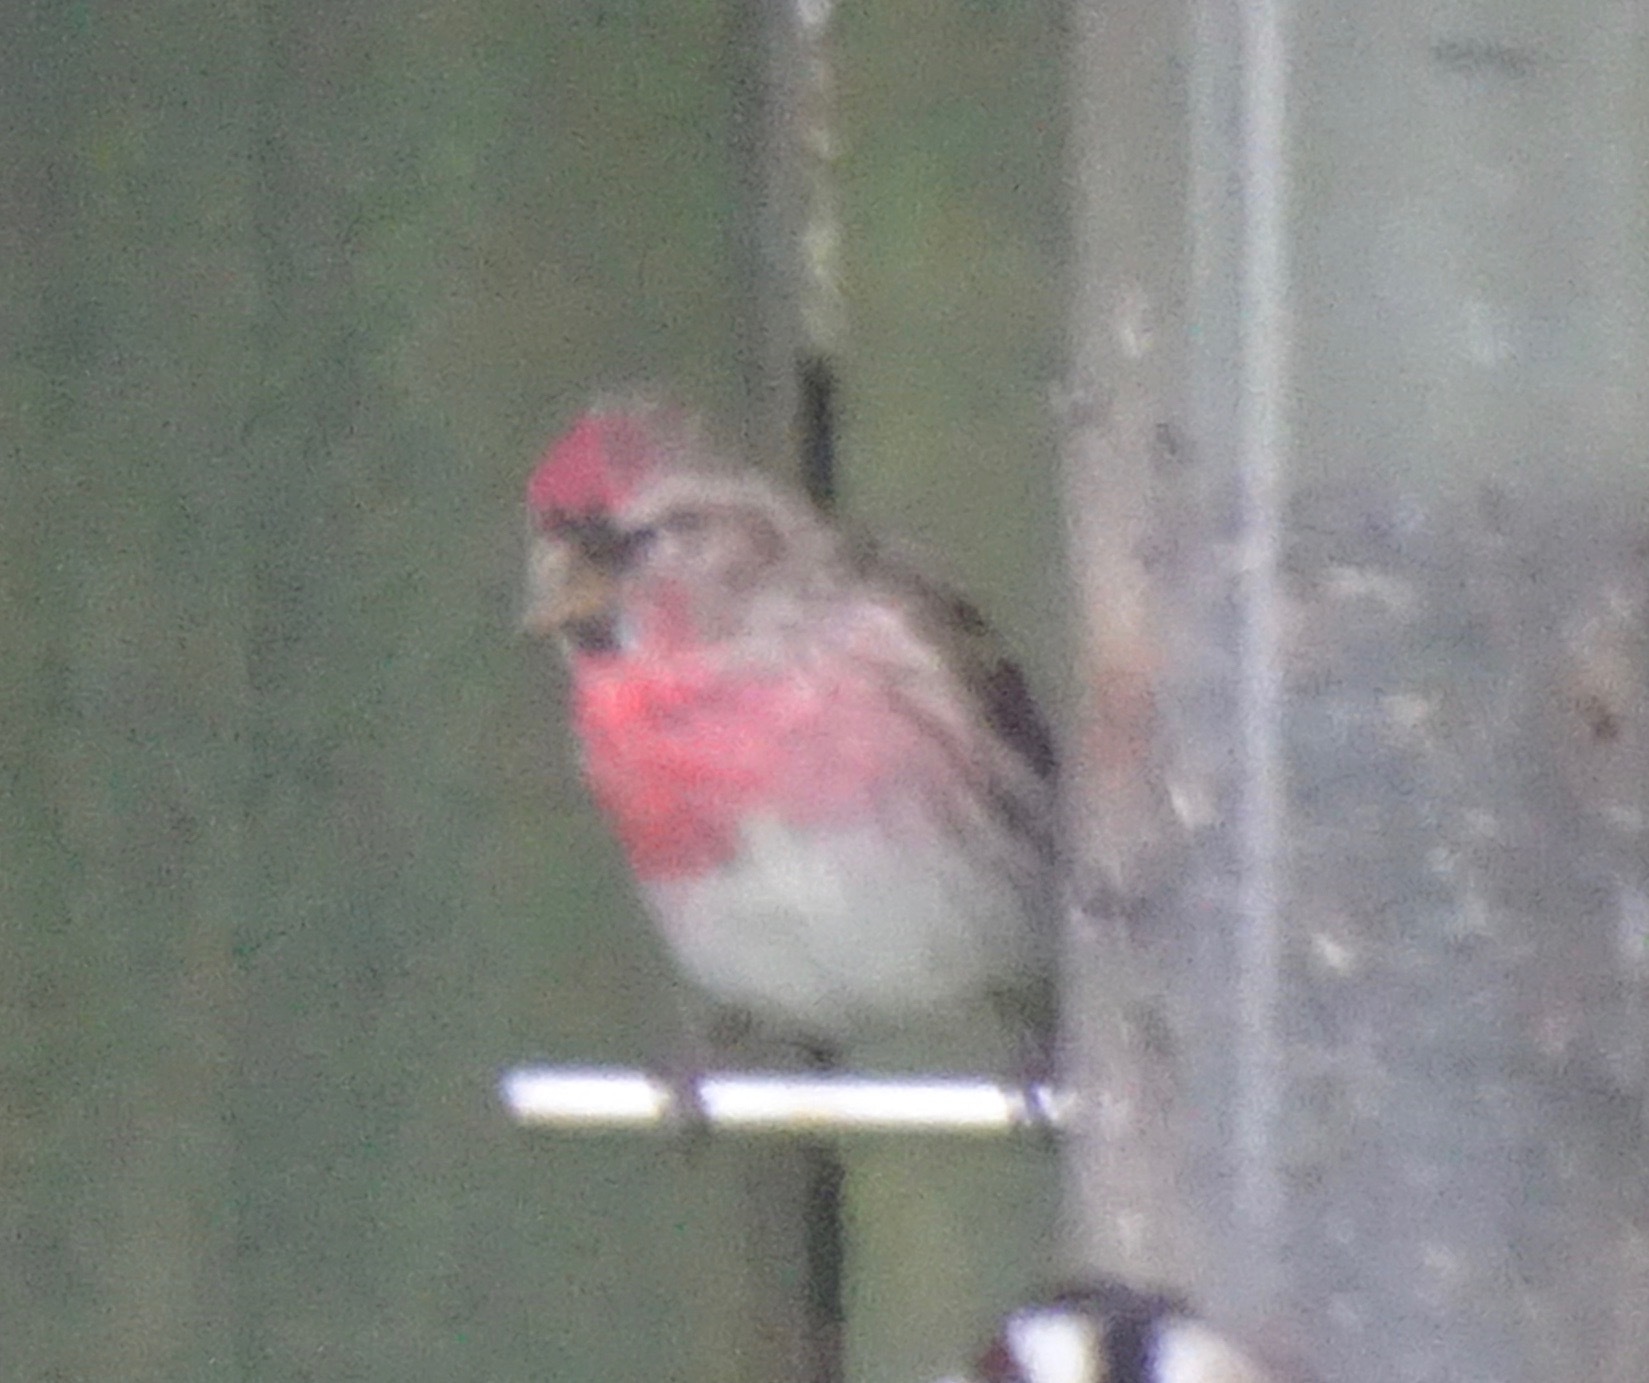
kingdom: Animalia
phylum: Chordata
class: Aves
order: Passeriformes
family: Fringillidae
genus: Acanthis
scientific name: Acanthis flammea
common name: Common redpoll
